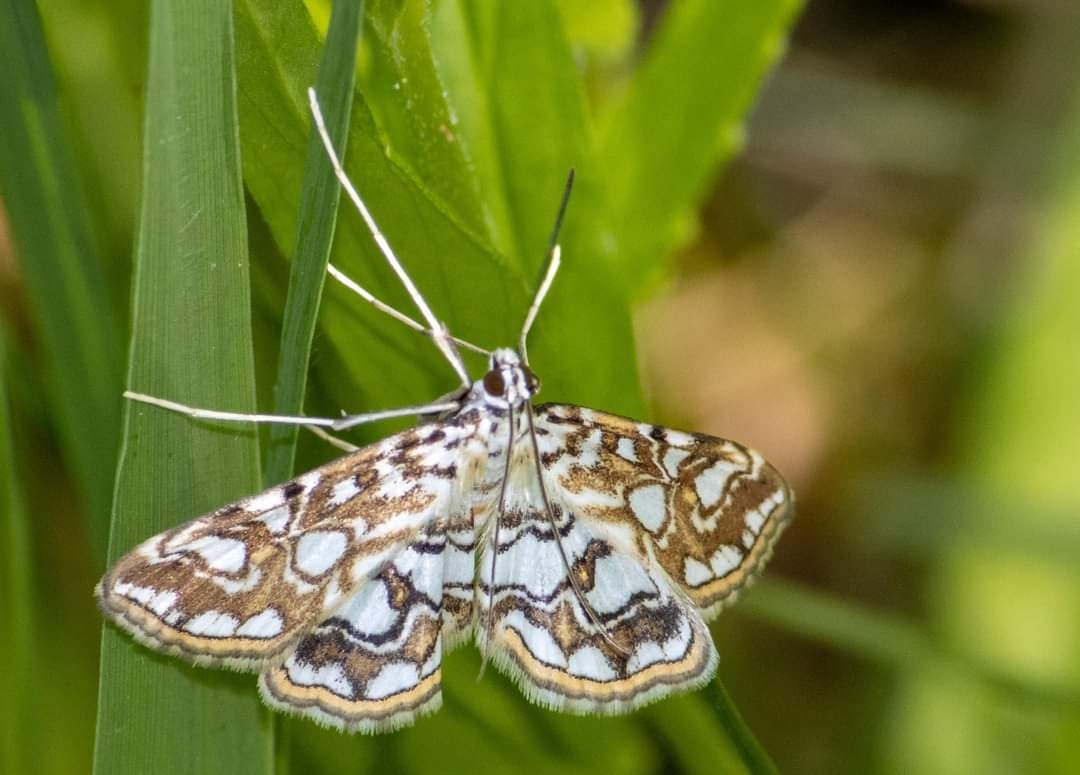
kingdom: Animalia
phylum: Arthropoda
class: Insecta
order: Lepidoptera
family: Crambidae
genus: Elophila
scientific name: Elophila nymphaeata
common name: Brown china-mark
